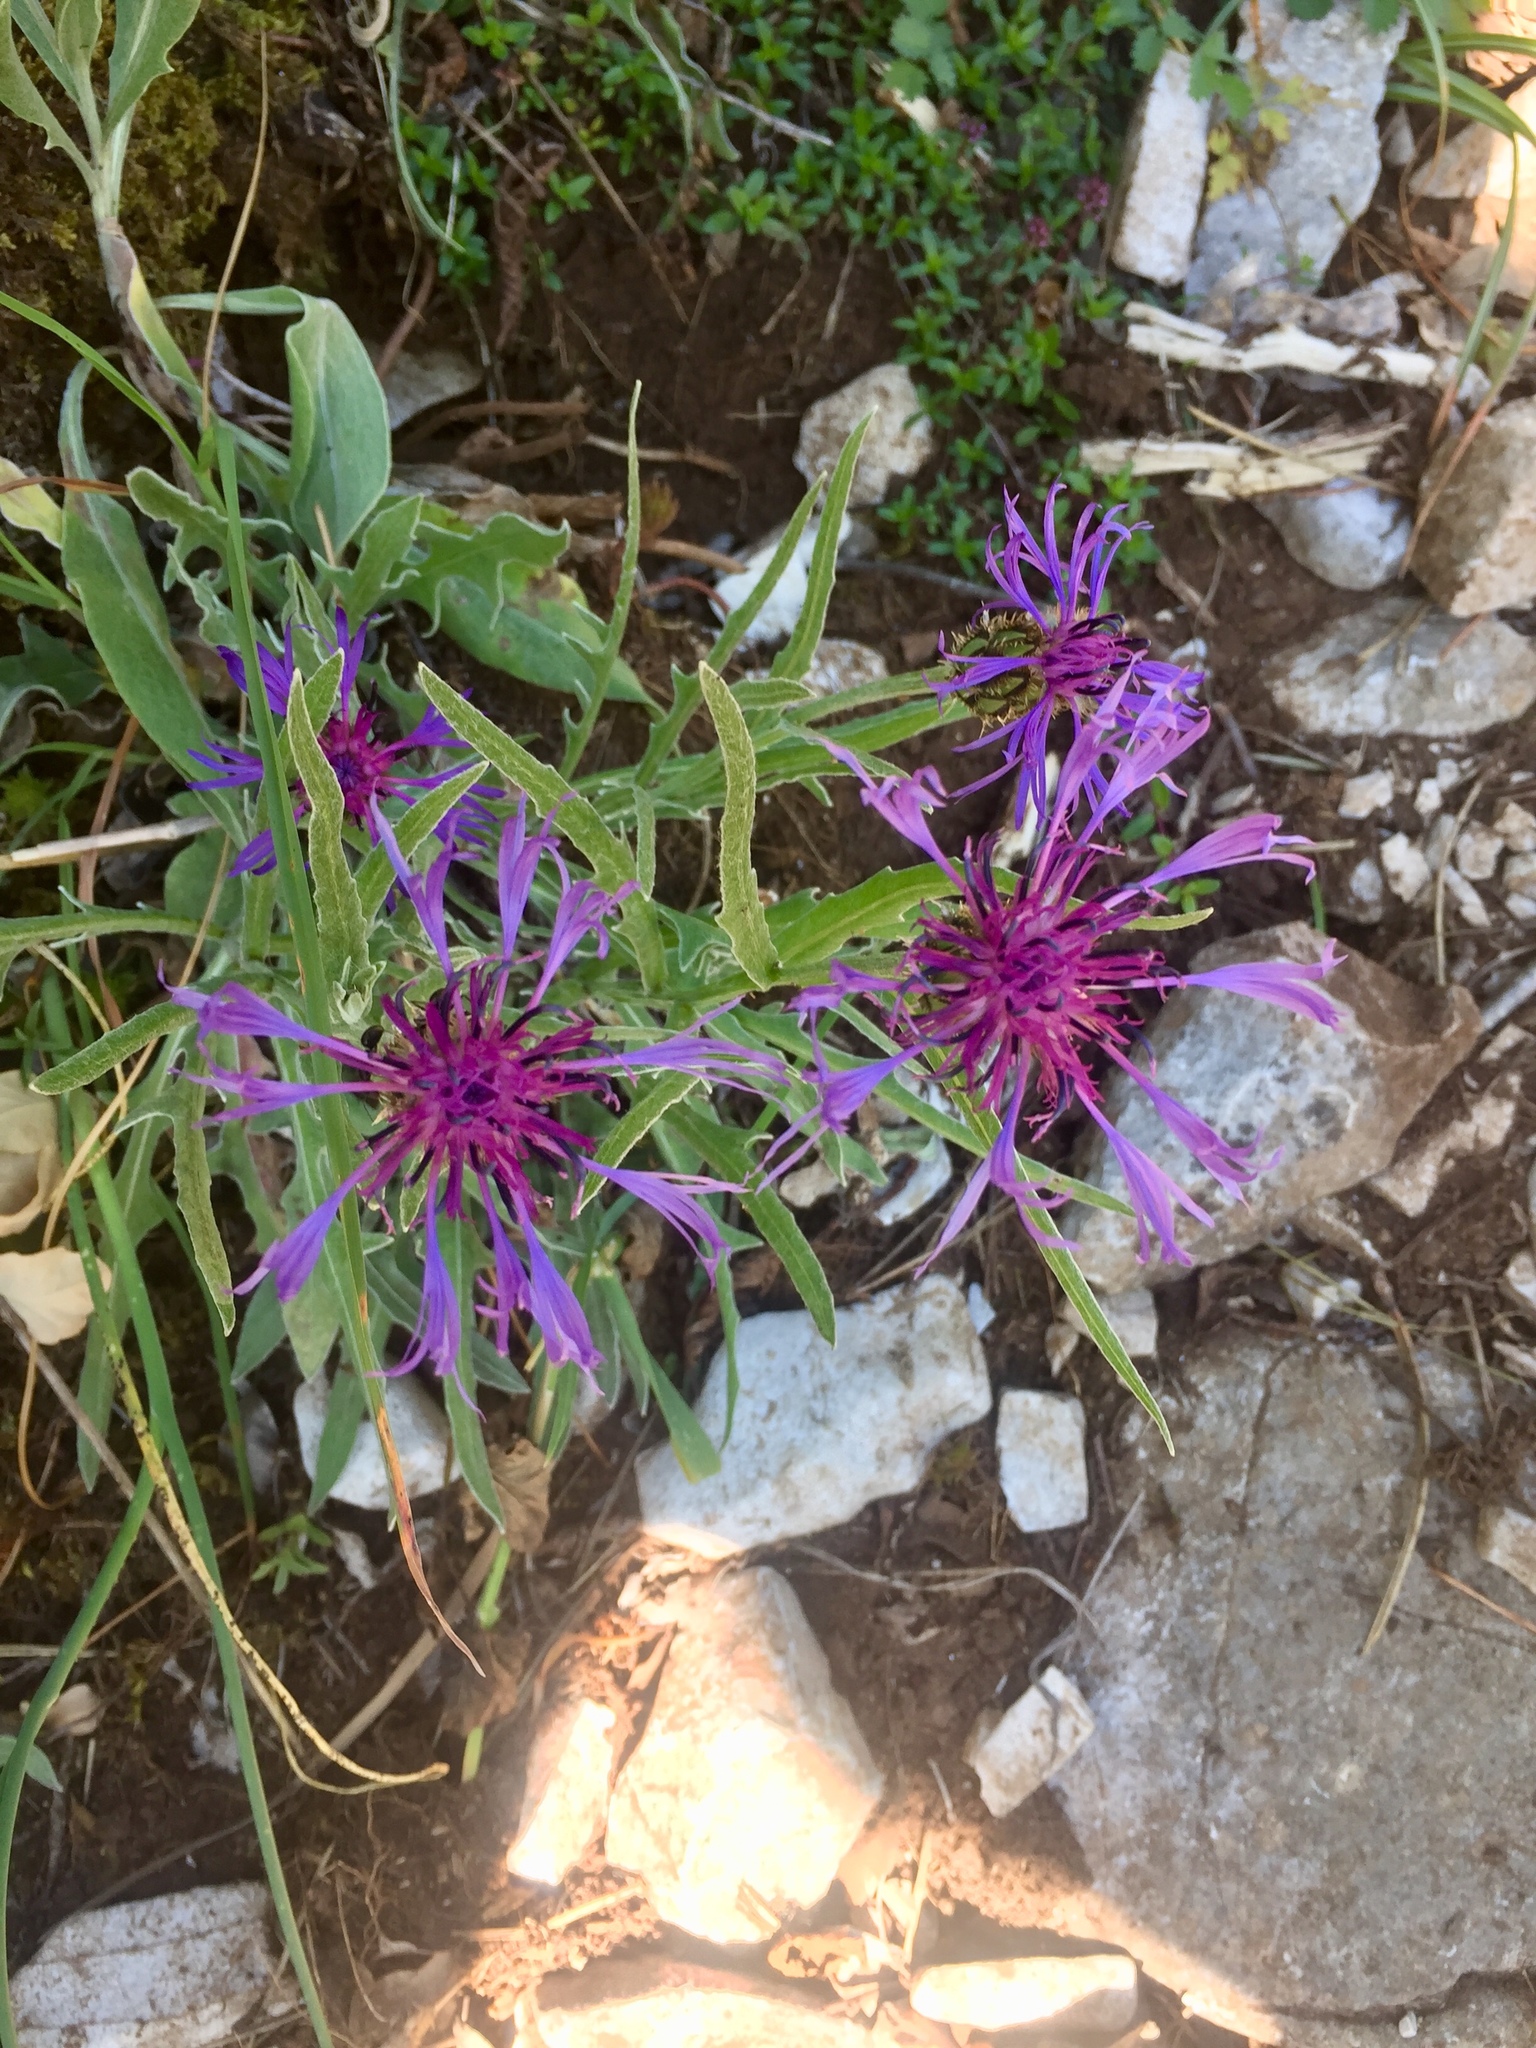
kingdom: Plantae
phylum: Tracheophyta
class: Magnoliopsida
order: Asterales
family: Asteraceae
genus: Centaurea
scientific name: Centaurea triumfettii
